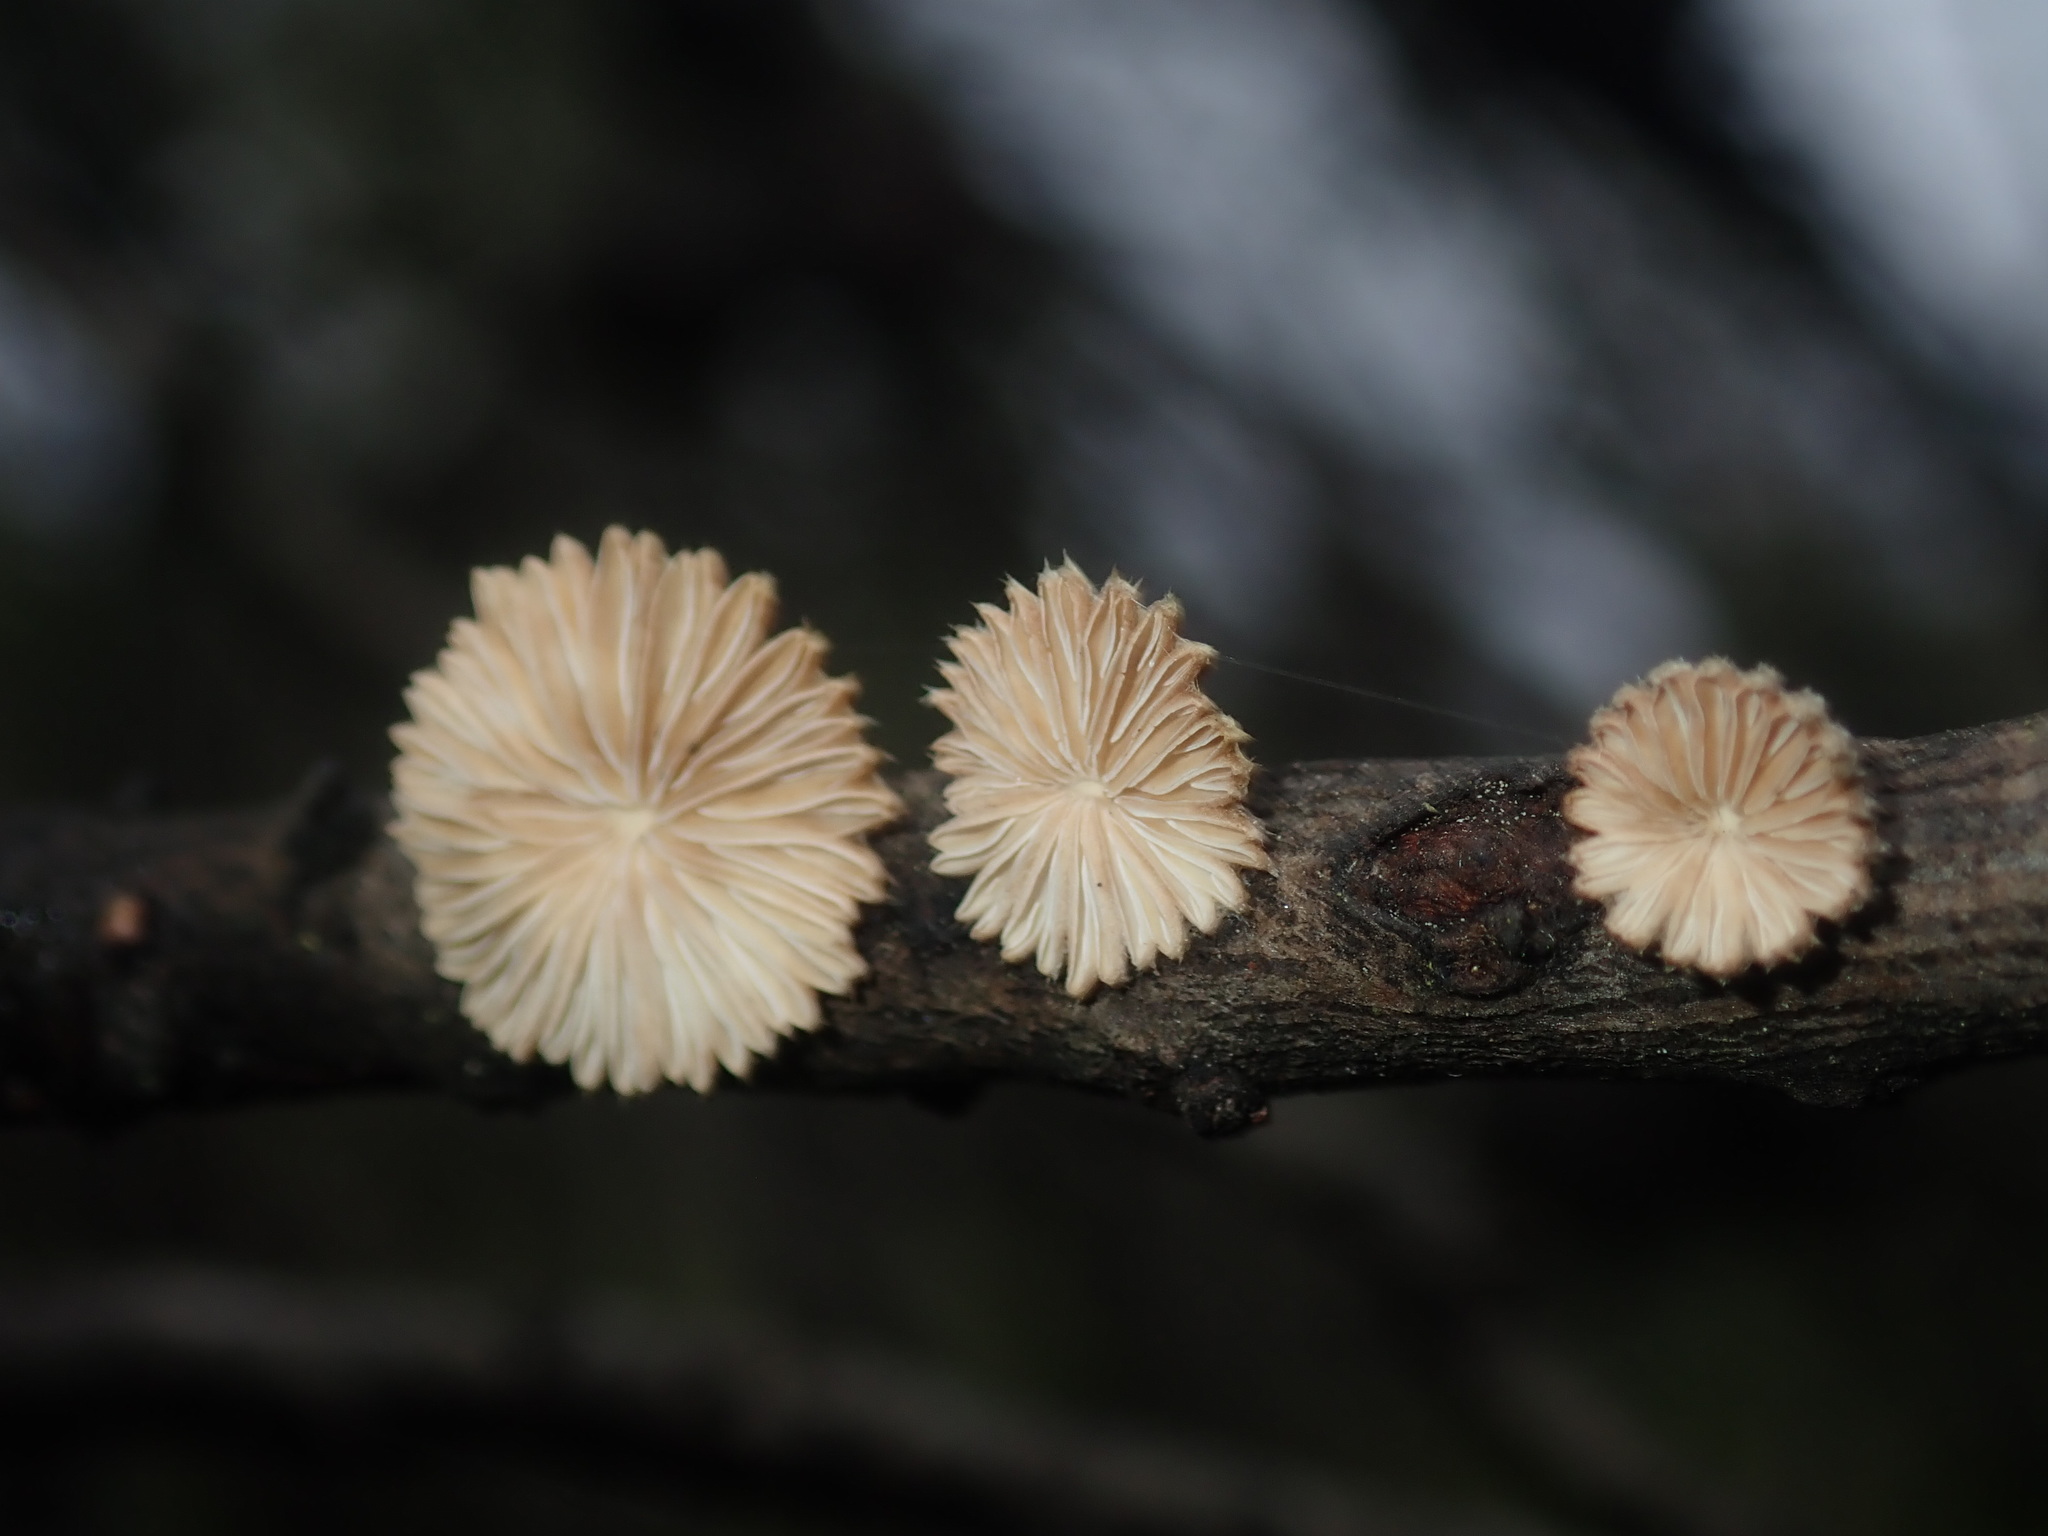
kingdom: Fungi
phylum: Basidiomycota
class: Agaricomycetes
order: Agaricales
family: Schizophyllaceae
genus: Schizophyllum
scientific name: Schizophyllum commune
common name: Common porecrust
